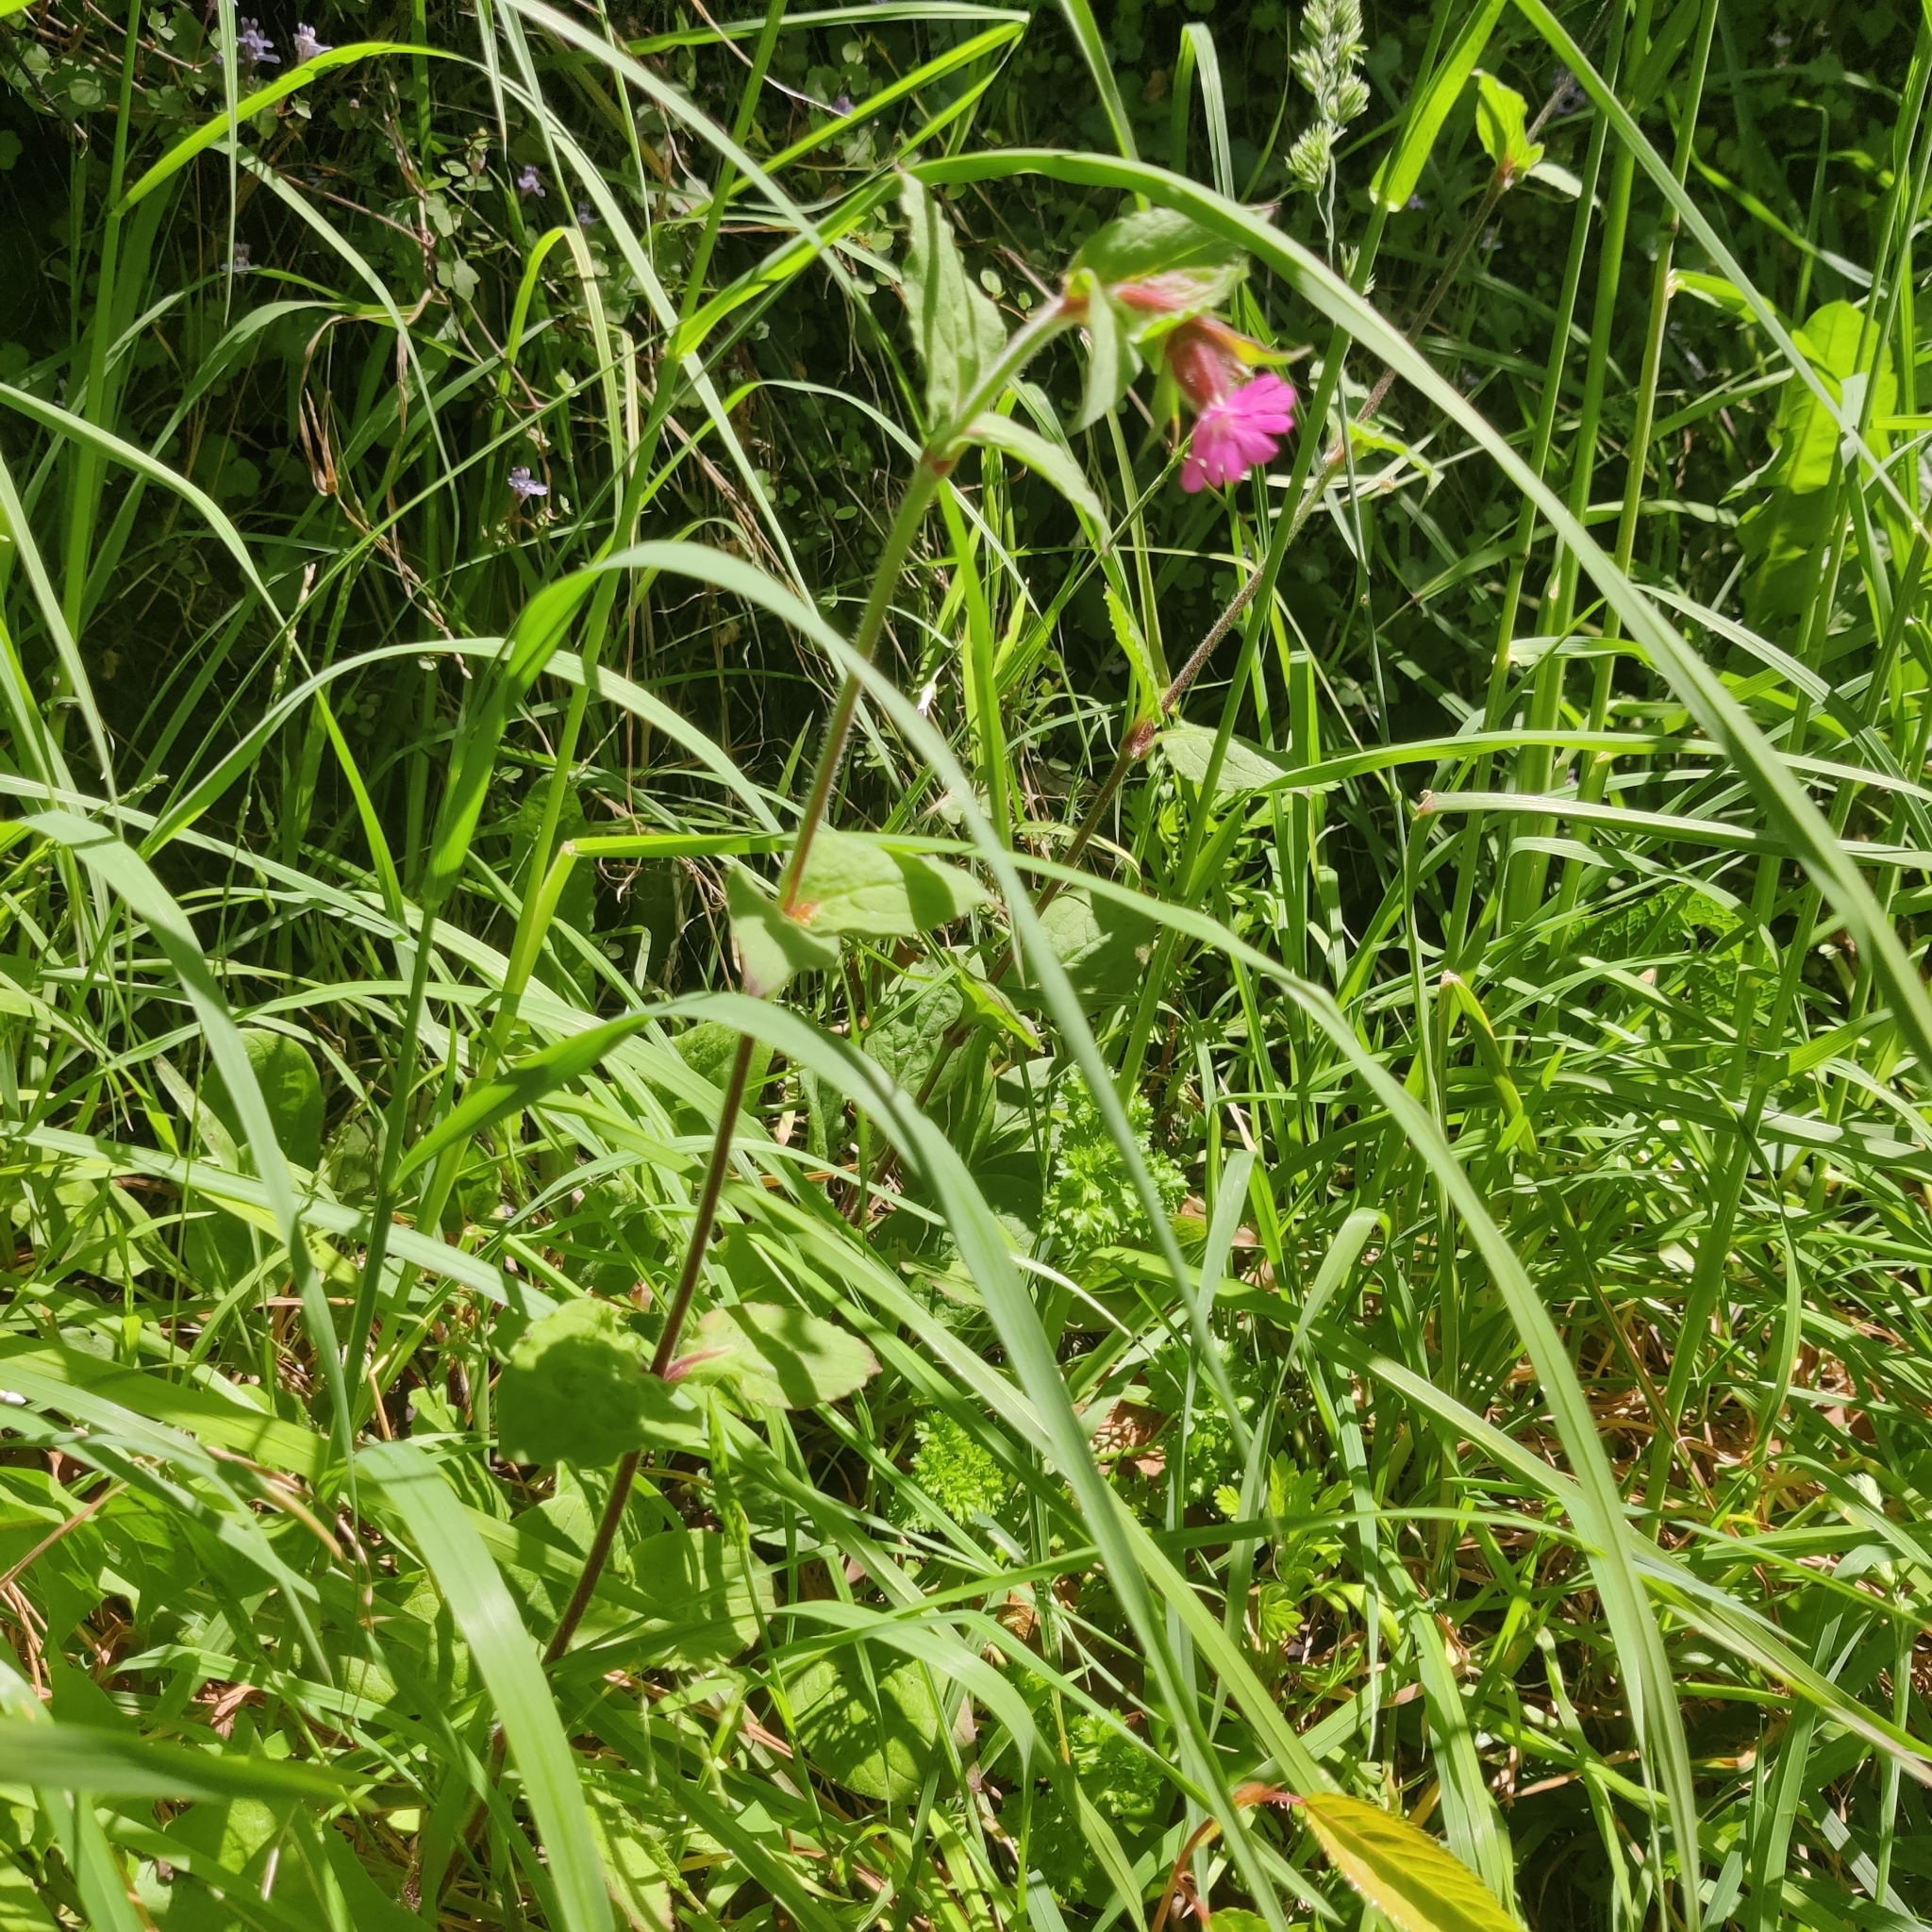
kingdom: Plantae
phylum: Tracheophyta
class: Magnoliopsida
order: Caryophyllales
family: Caryophyllaceae
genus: Silene
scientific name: Silene dioica
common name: Red campion
